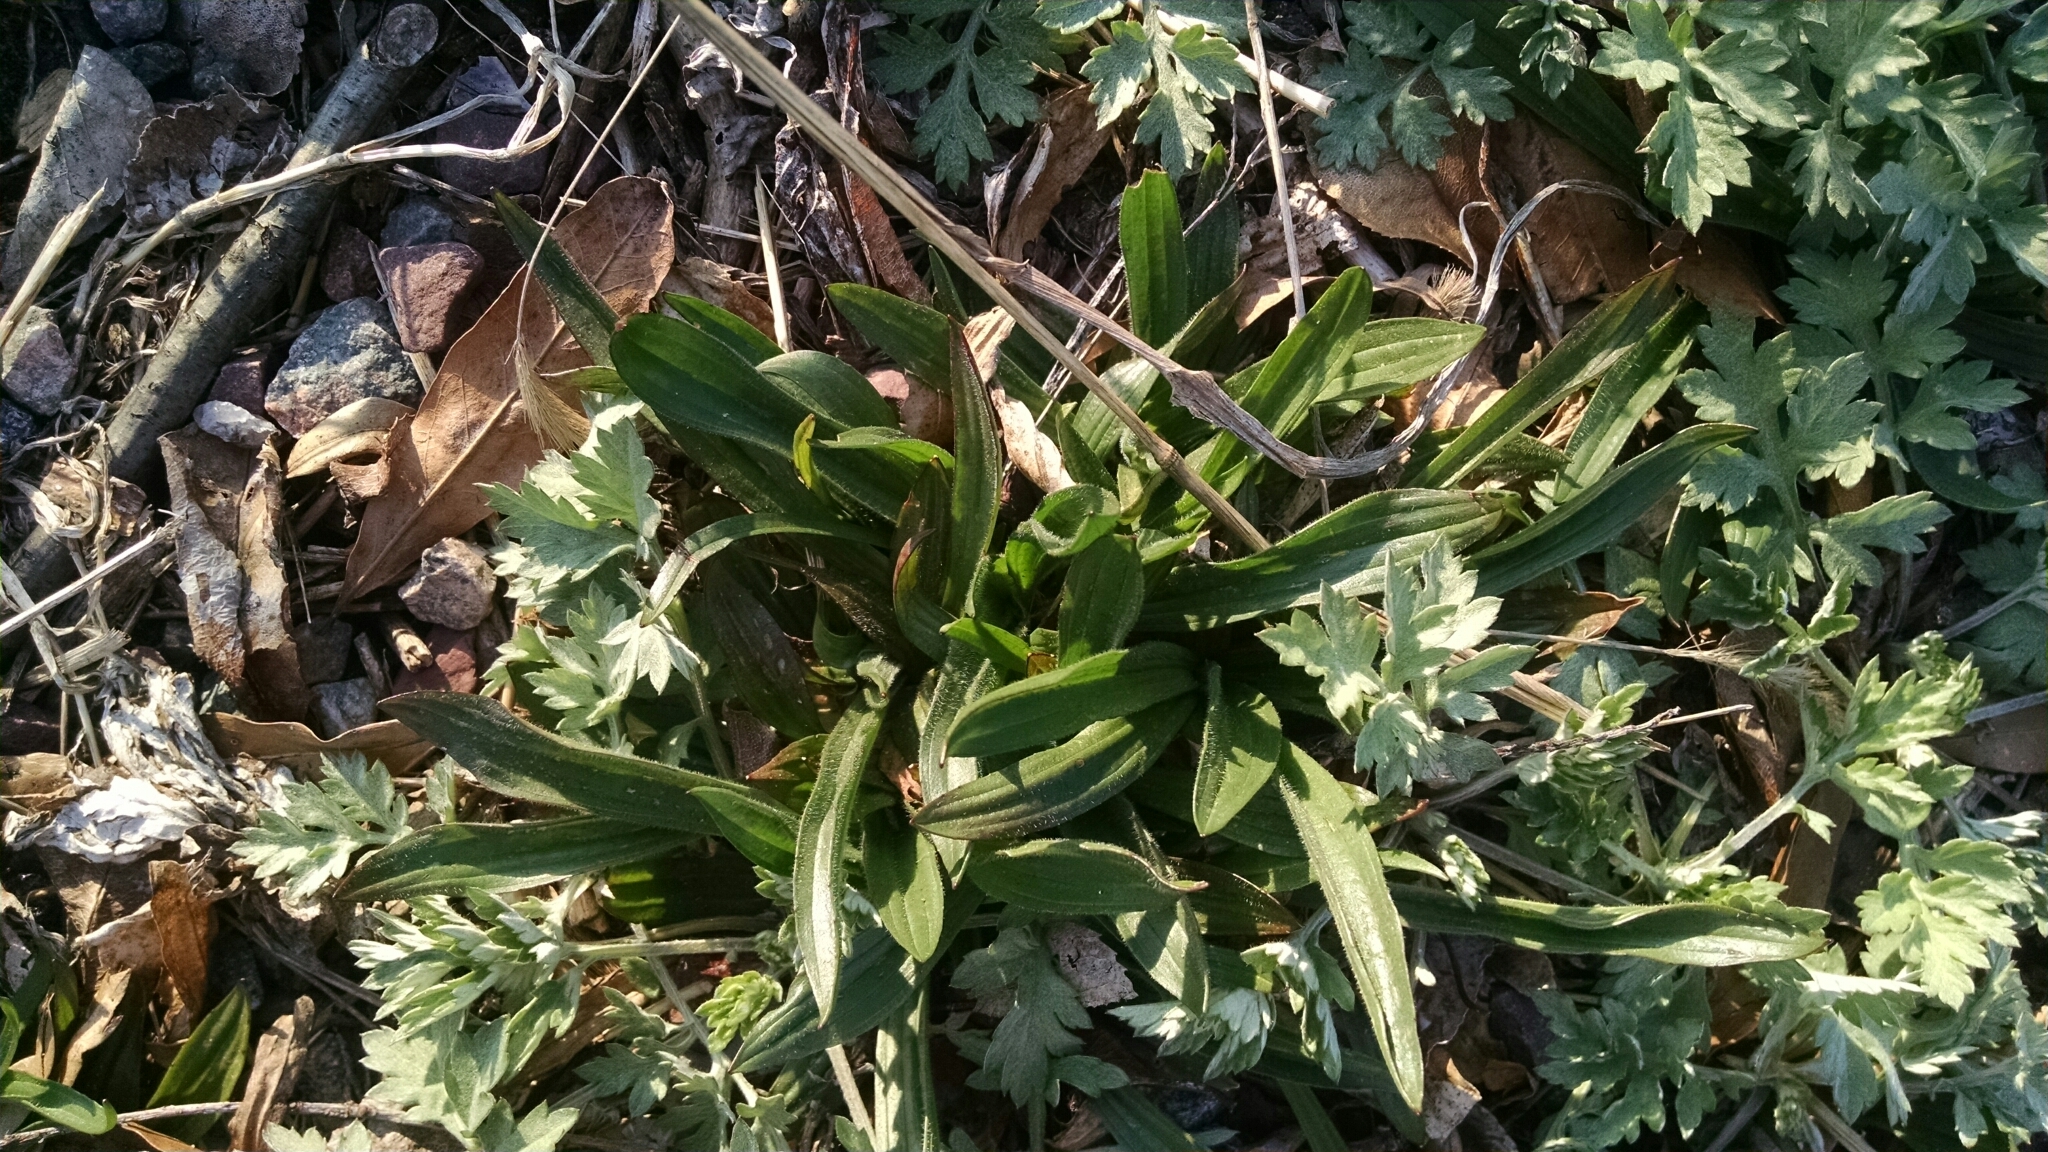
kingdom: Plantae
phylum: Tracheophyta
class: Magnoliopsida
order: Lamiales
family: Plantaginaceae
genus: Plantago
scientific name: Plantago lanceolata
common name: Ribwort plantain
